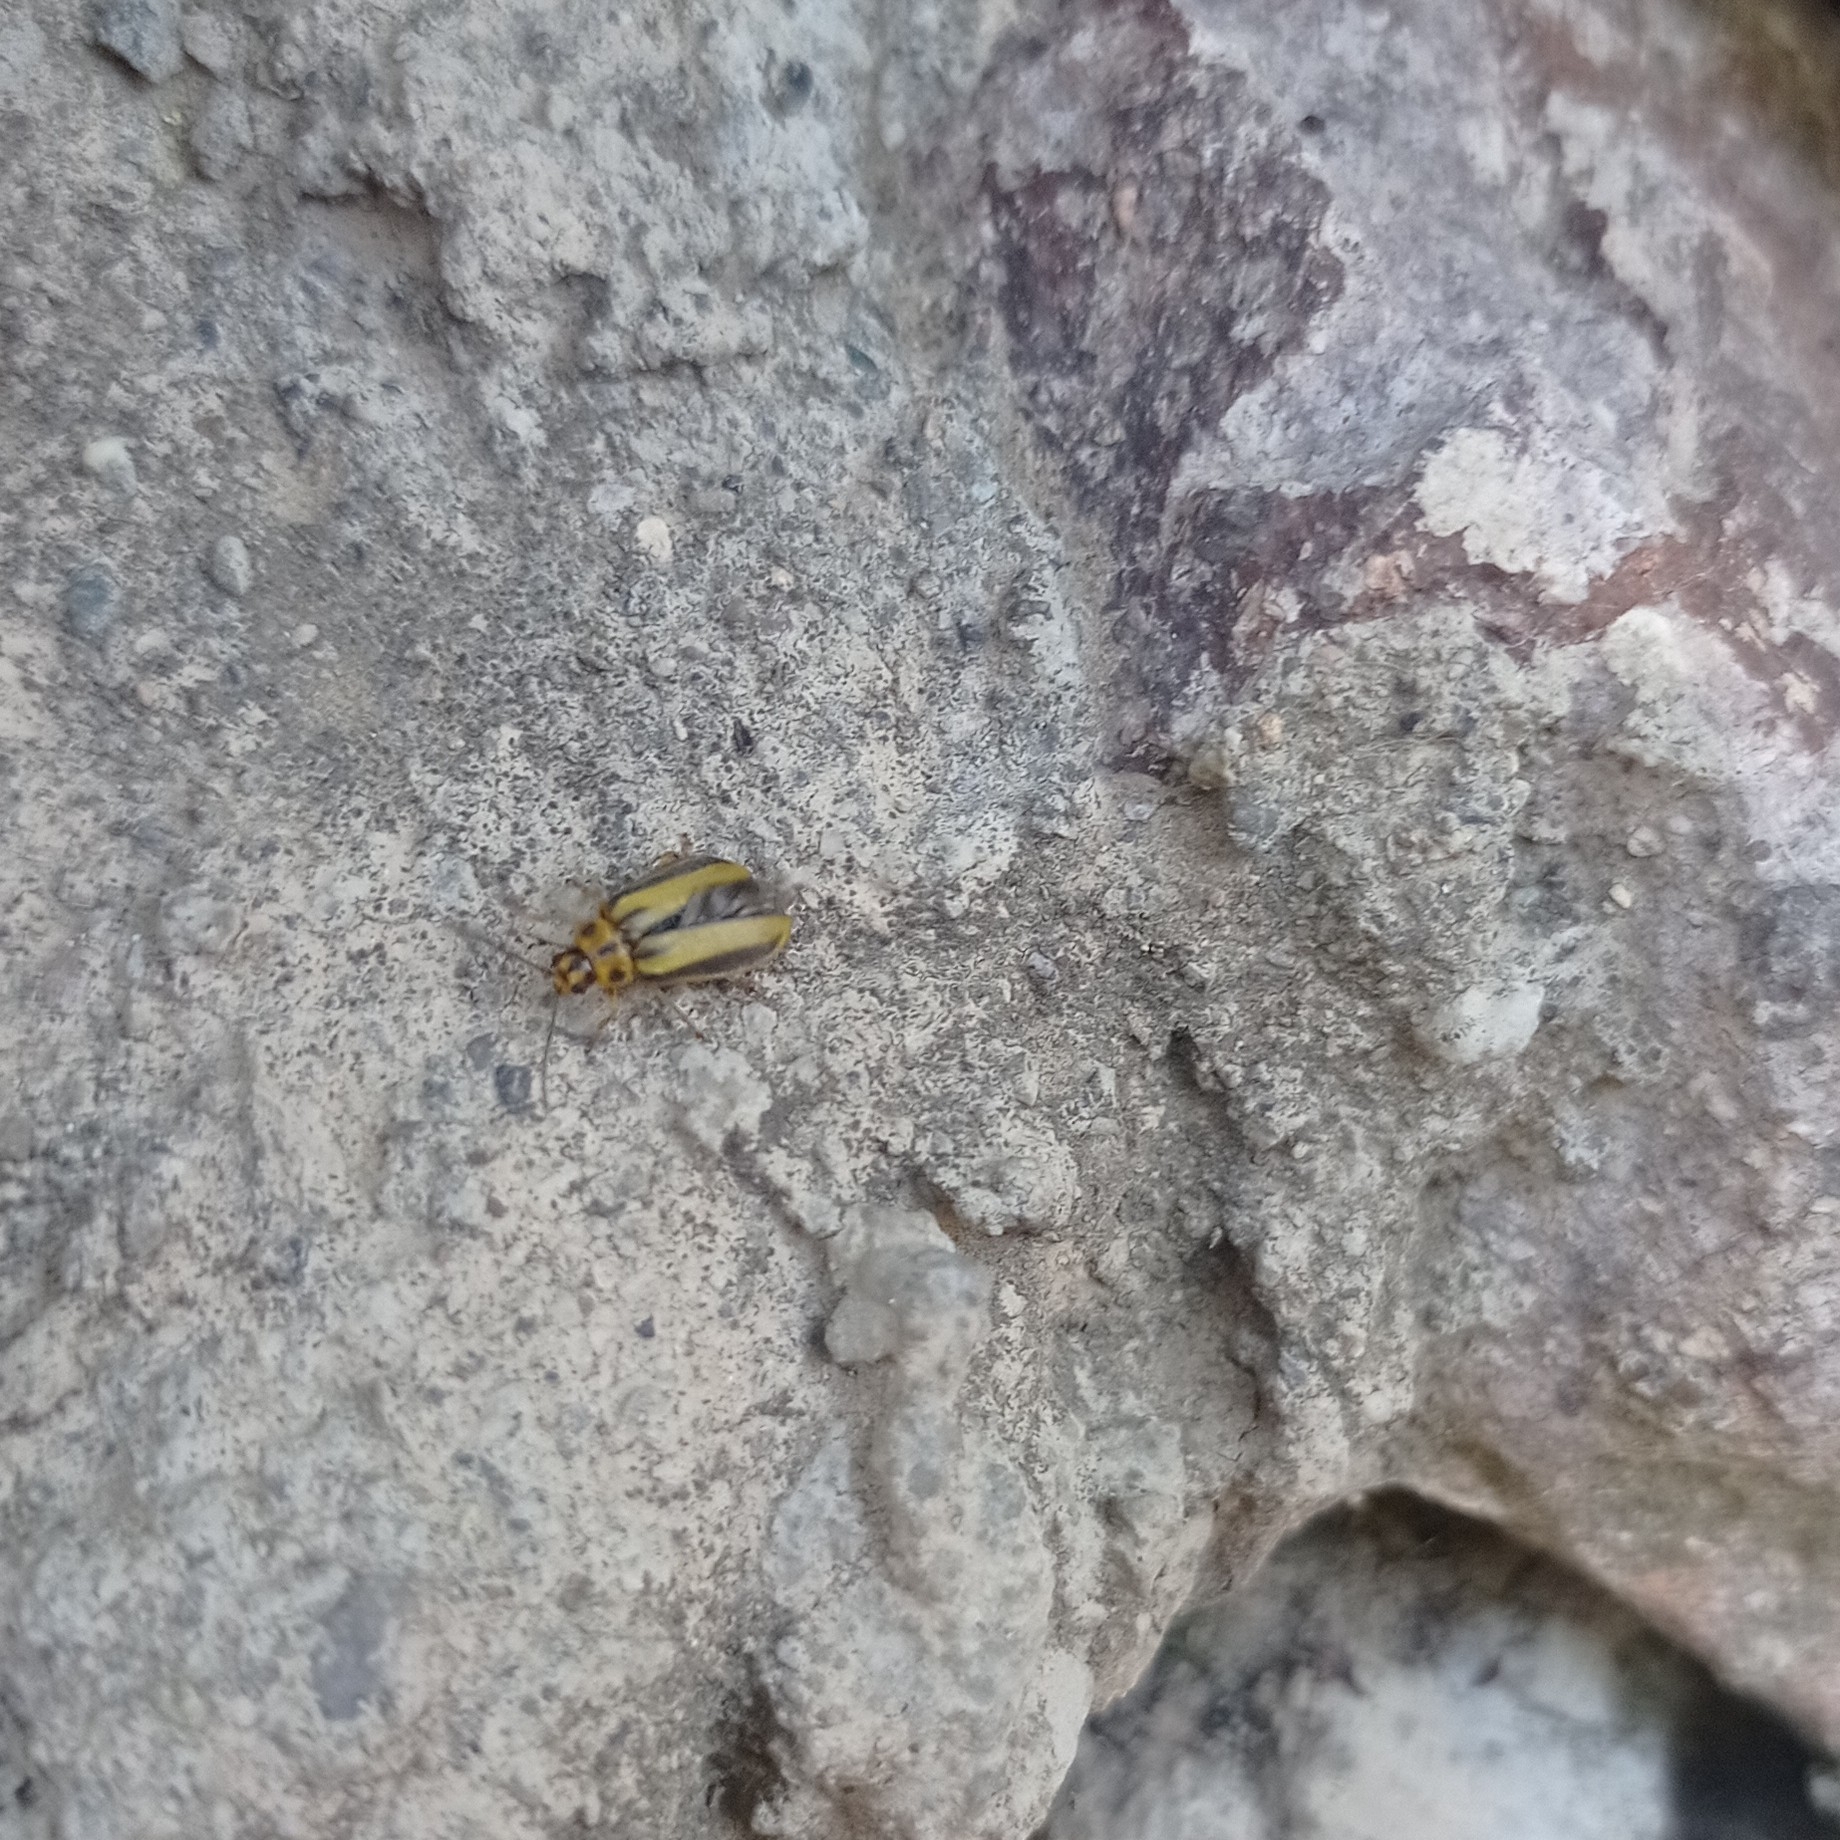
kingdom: Animalia
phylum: Arthropoda
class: Insecta
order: Coleoptera
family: Chrysomelidae
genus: Xanthogaleruca
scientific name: Xanthogaleruca luteola
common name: Elm leaf beetle
